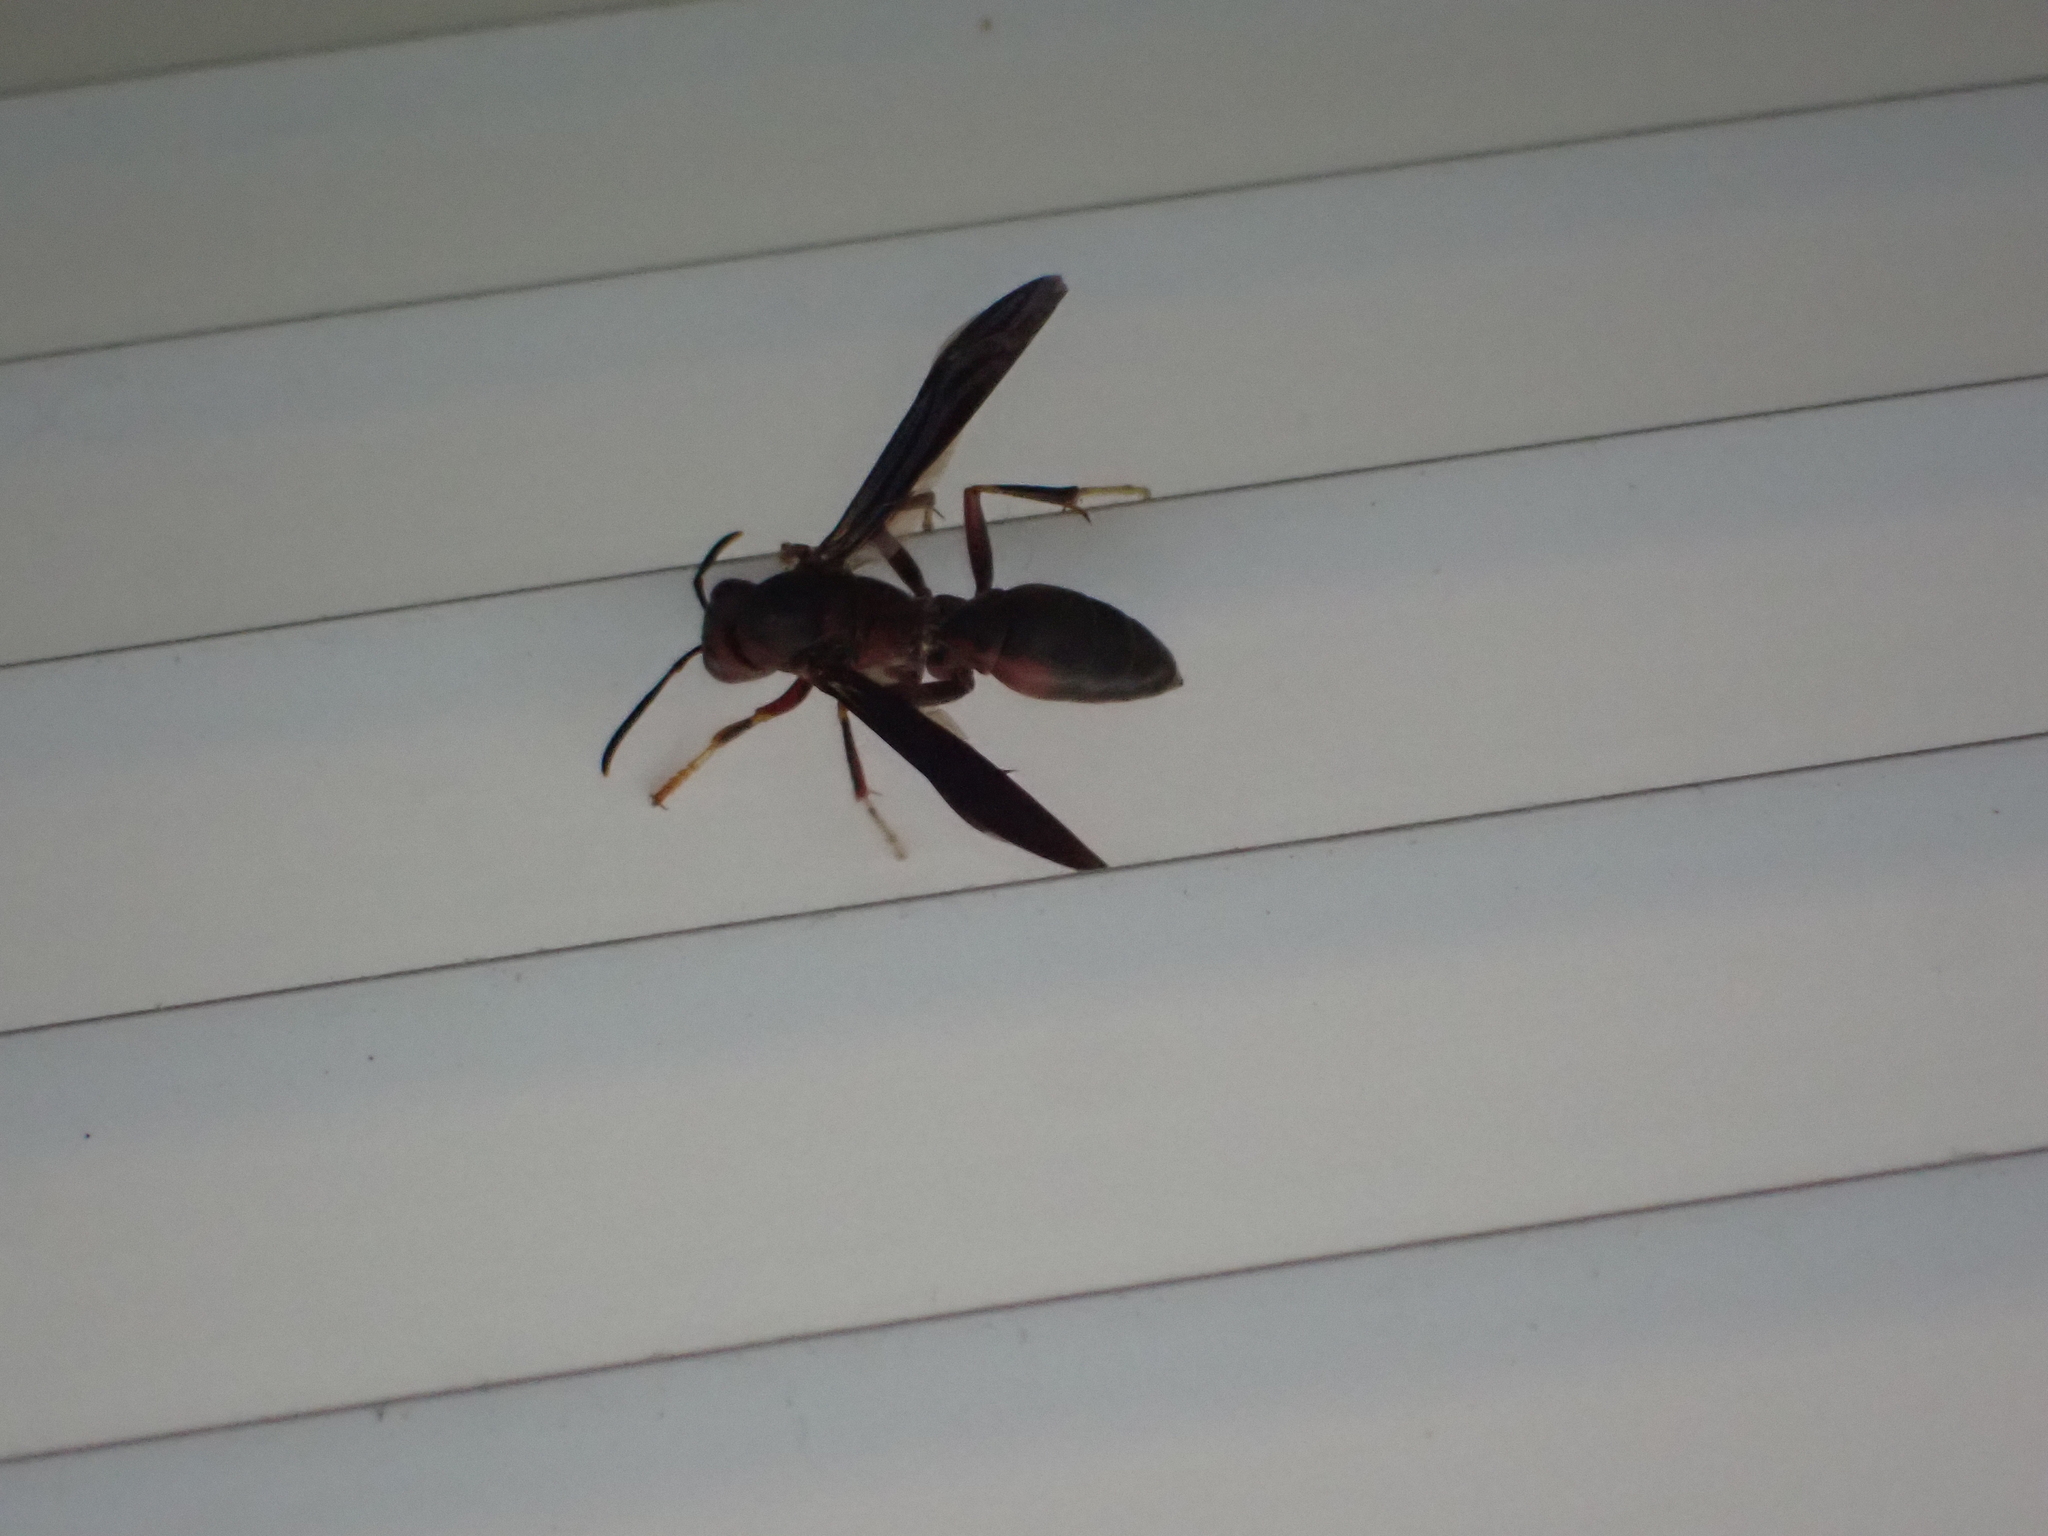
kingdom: Animalia
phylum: Arthropoda
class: Insecta
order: Hymenoptera
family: Eumenidae
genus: Polistes
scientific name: Polistes metricus
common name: Metric paper wasp
